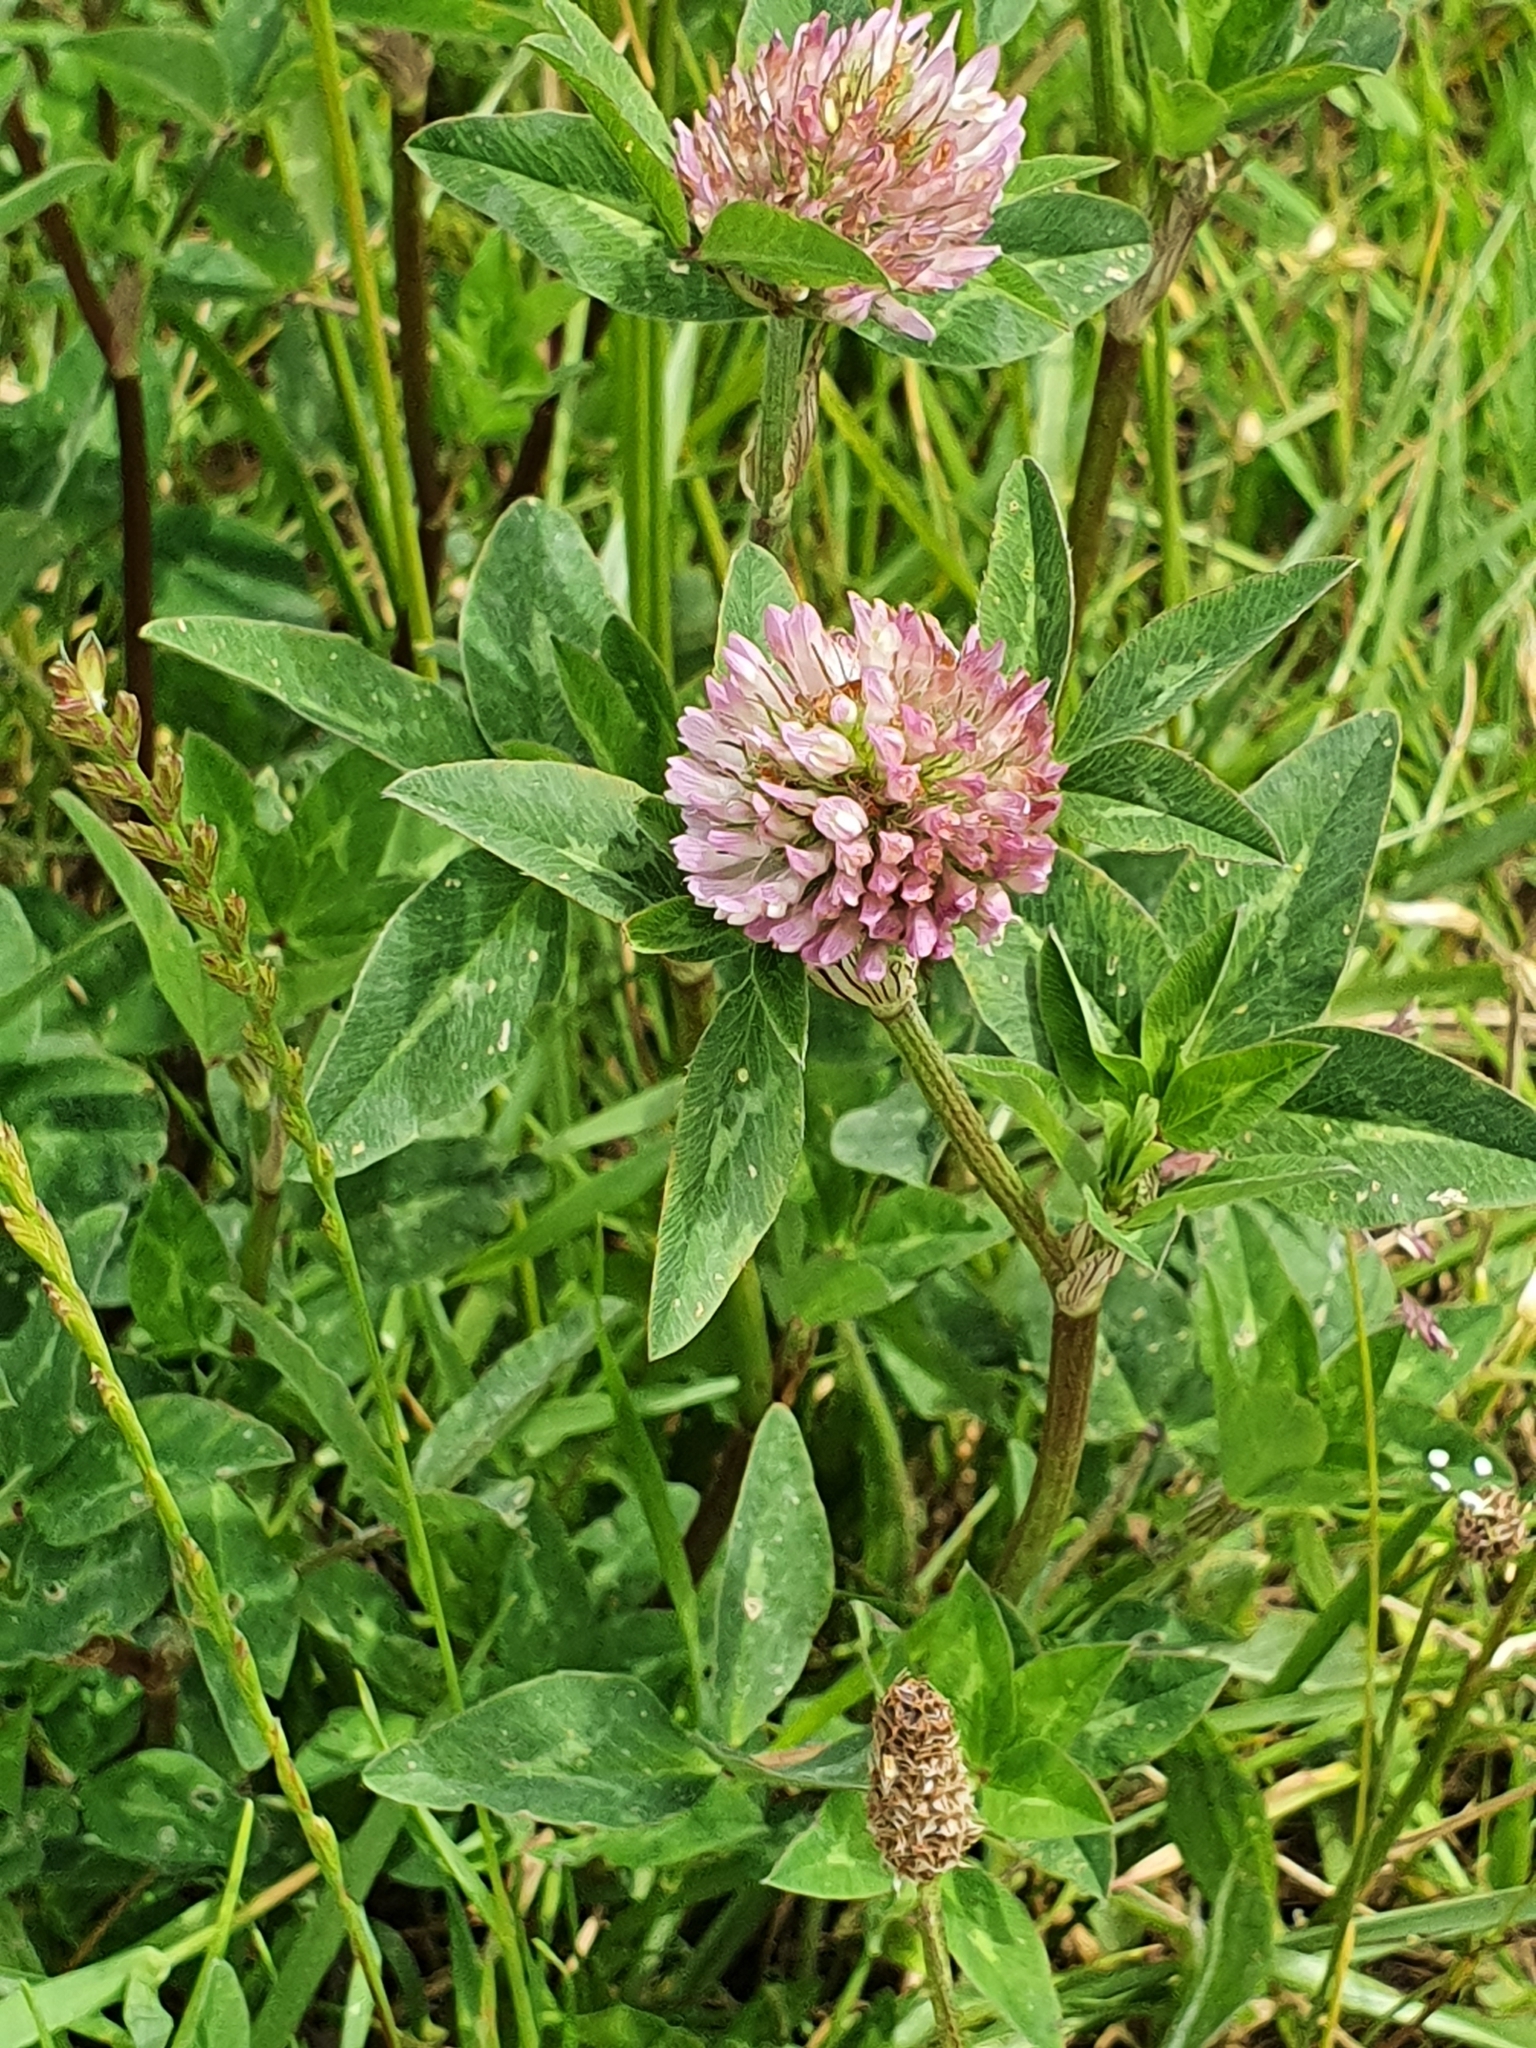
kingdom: Plantae
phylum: Tracheophyta
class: Magnoliopsida
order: Fabales
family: Fabaceae
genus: Trifolium
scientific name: Trifolium pratense
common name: Red clover
